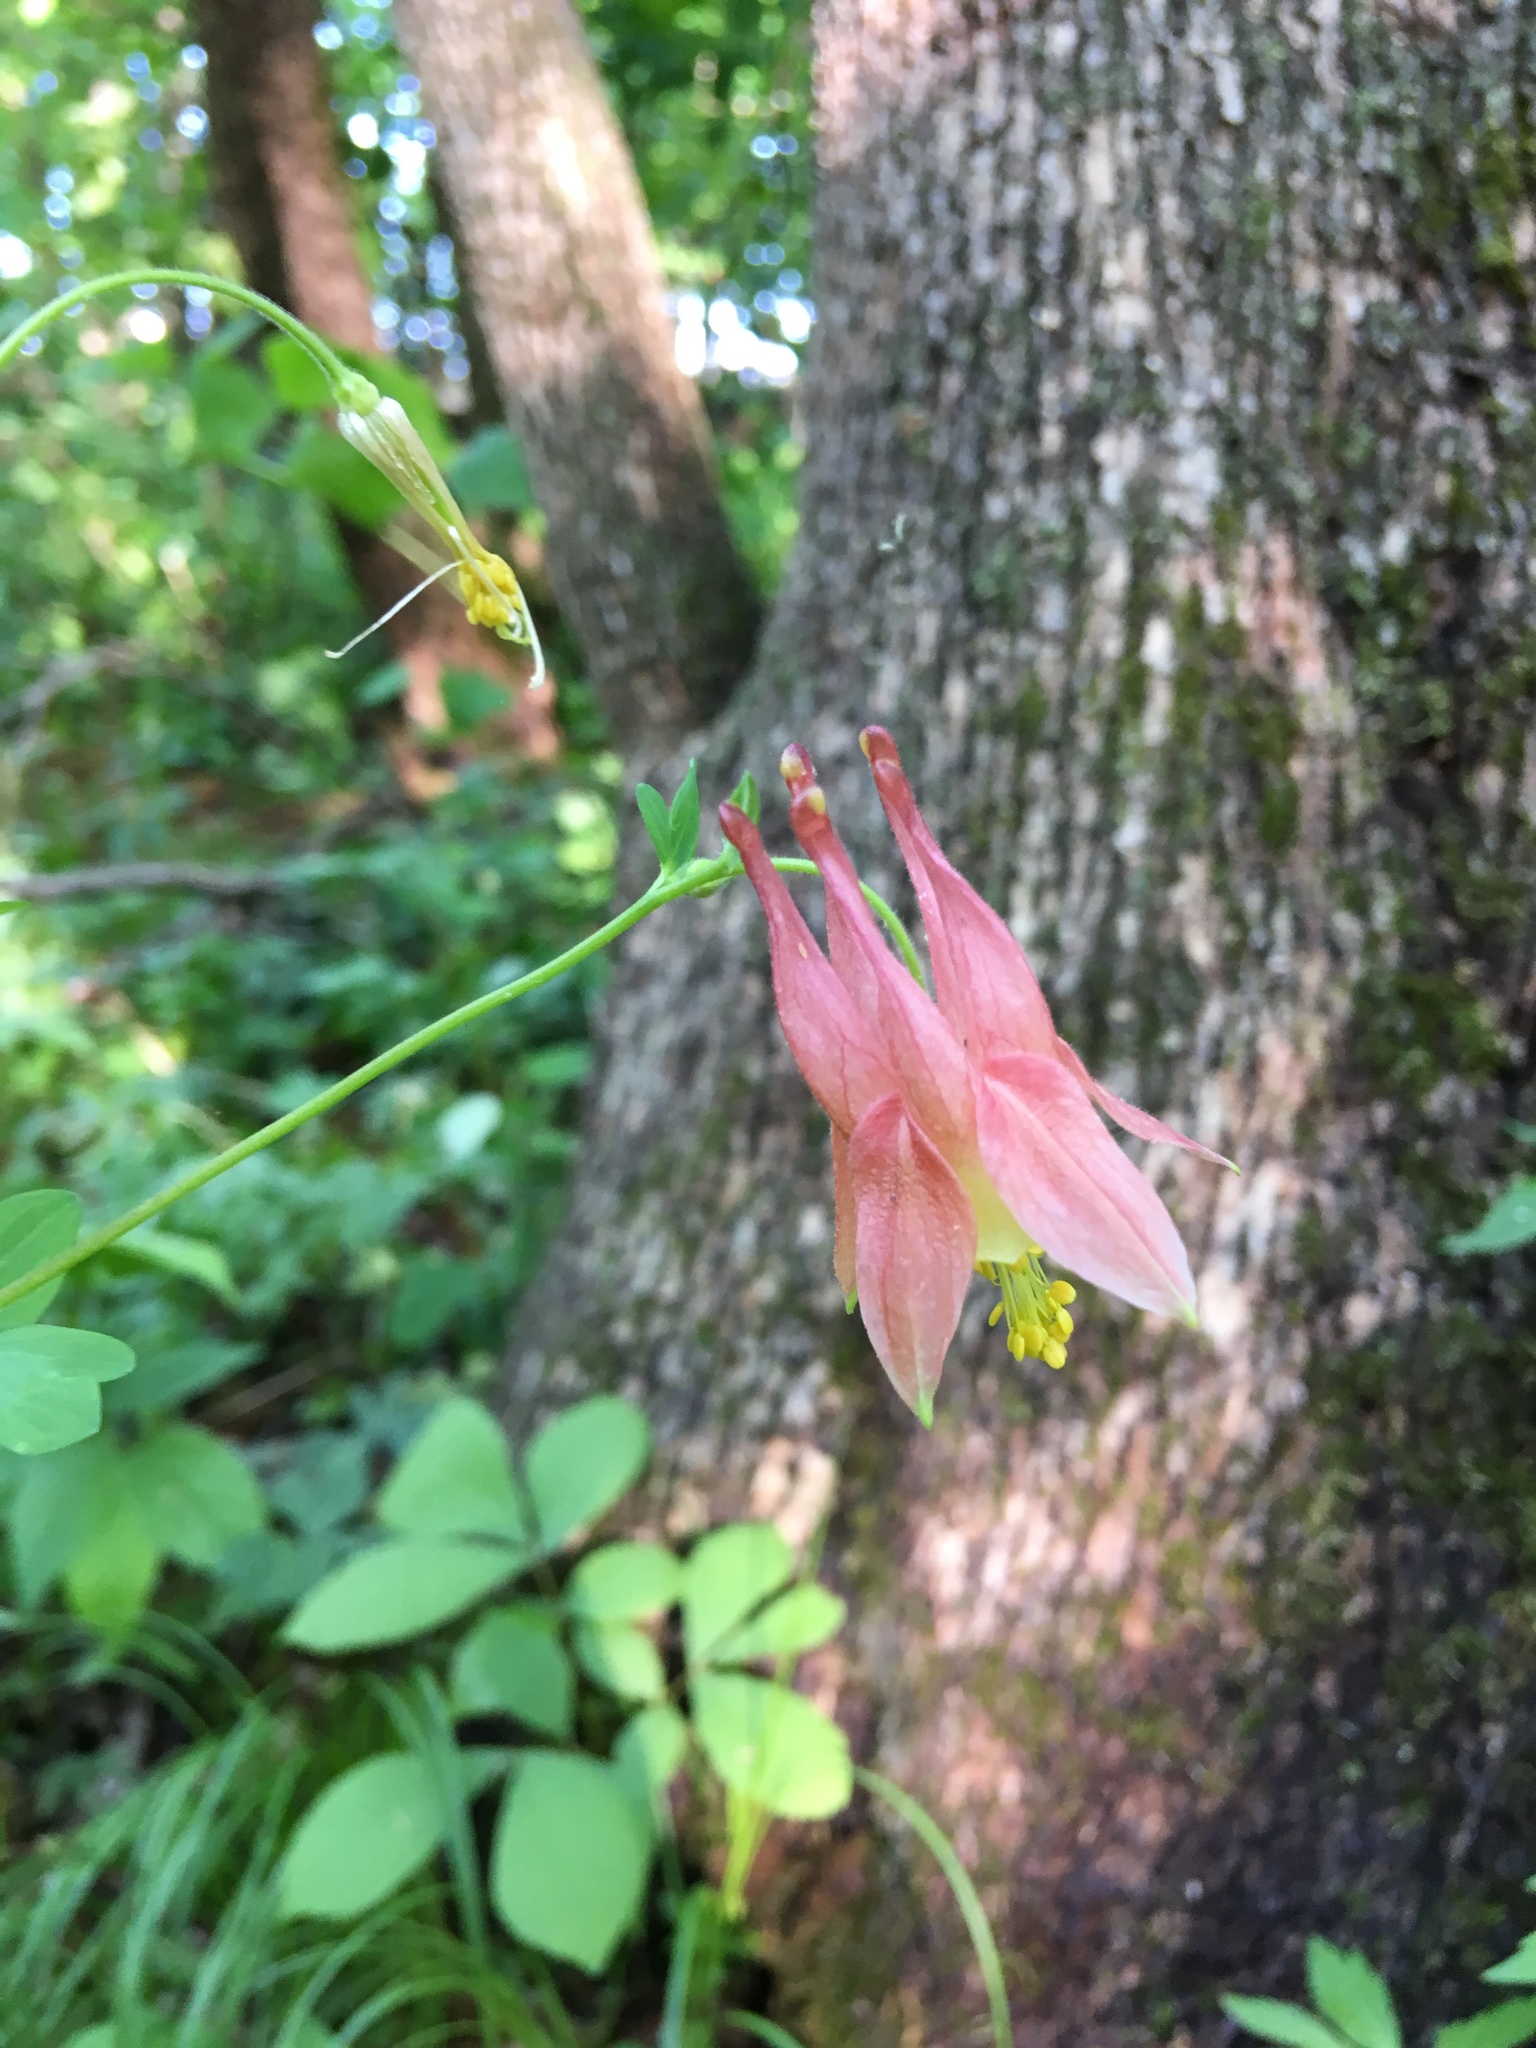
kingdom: Plantae
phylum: Tracheophyta
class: Magnoliopsida
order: Ranunculales
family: Ranunculaceae
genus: Aquilegia
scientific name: Aquilegia canadensis
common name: American columbine
